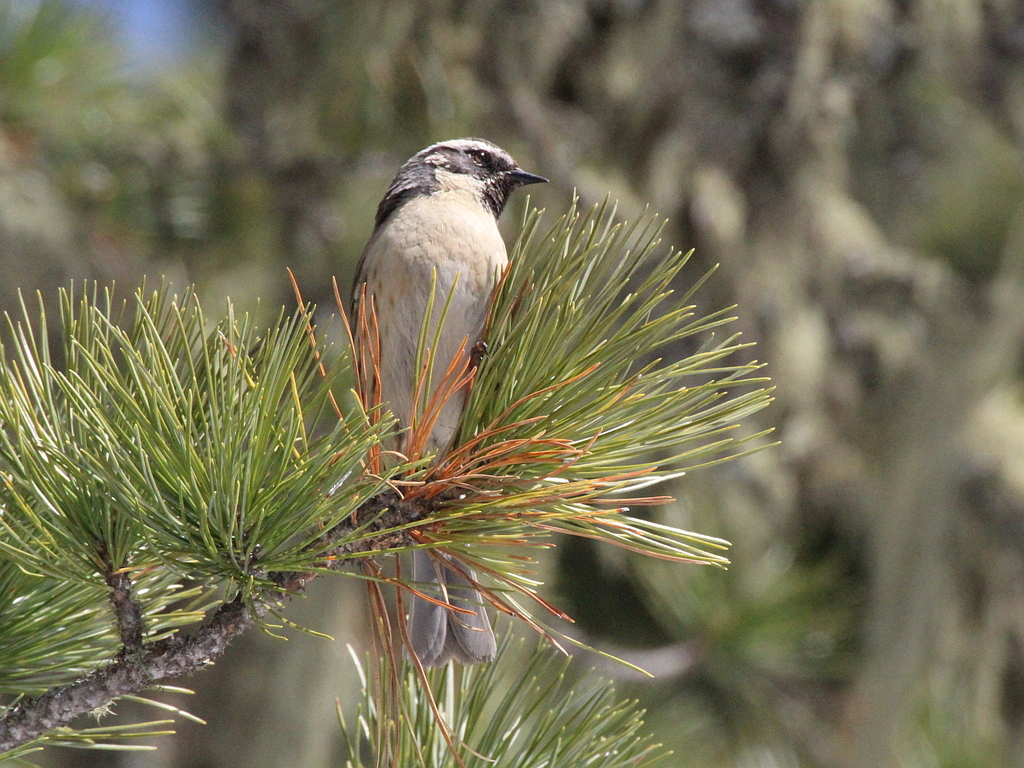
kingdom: Animalia
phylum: Chordata
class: Aves
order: Passeriformes
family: Prunellidae
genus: Prunella
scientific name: Prunella atrogularis
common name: Black-throated accentor
